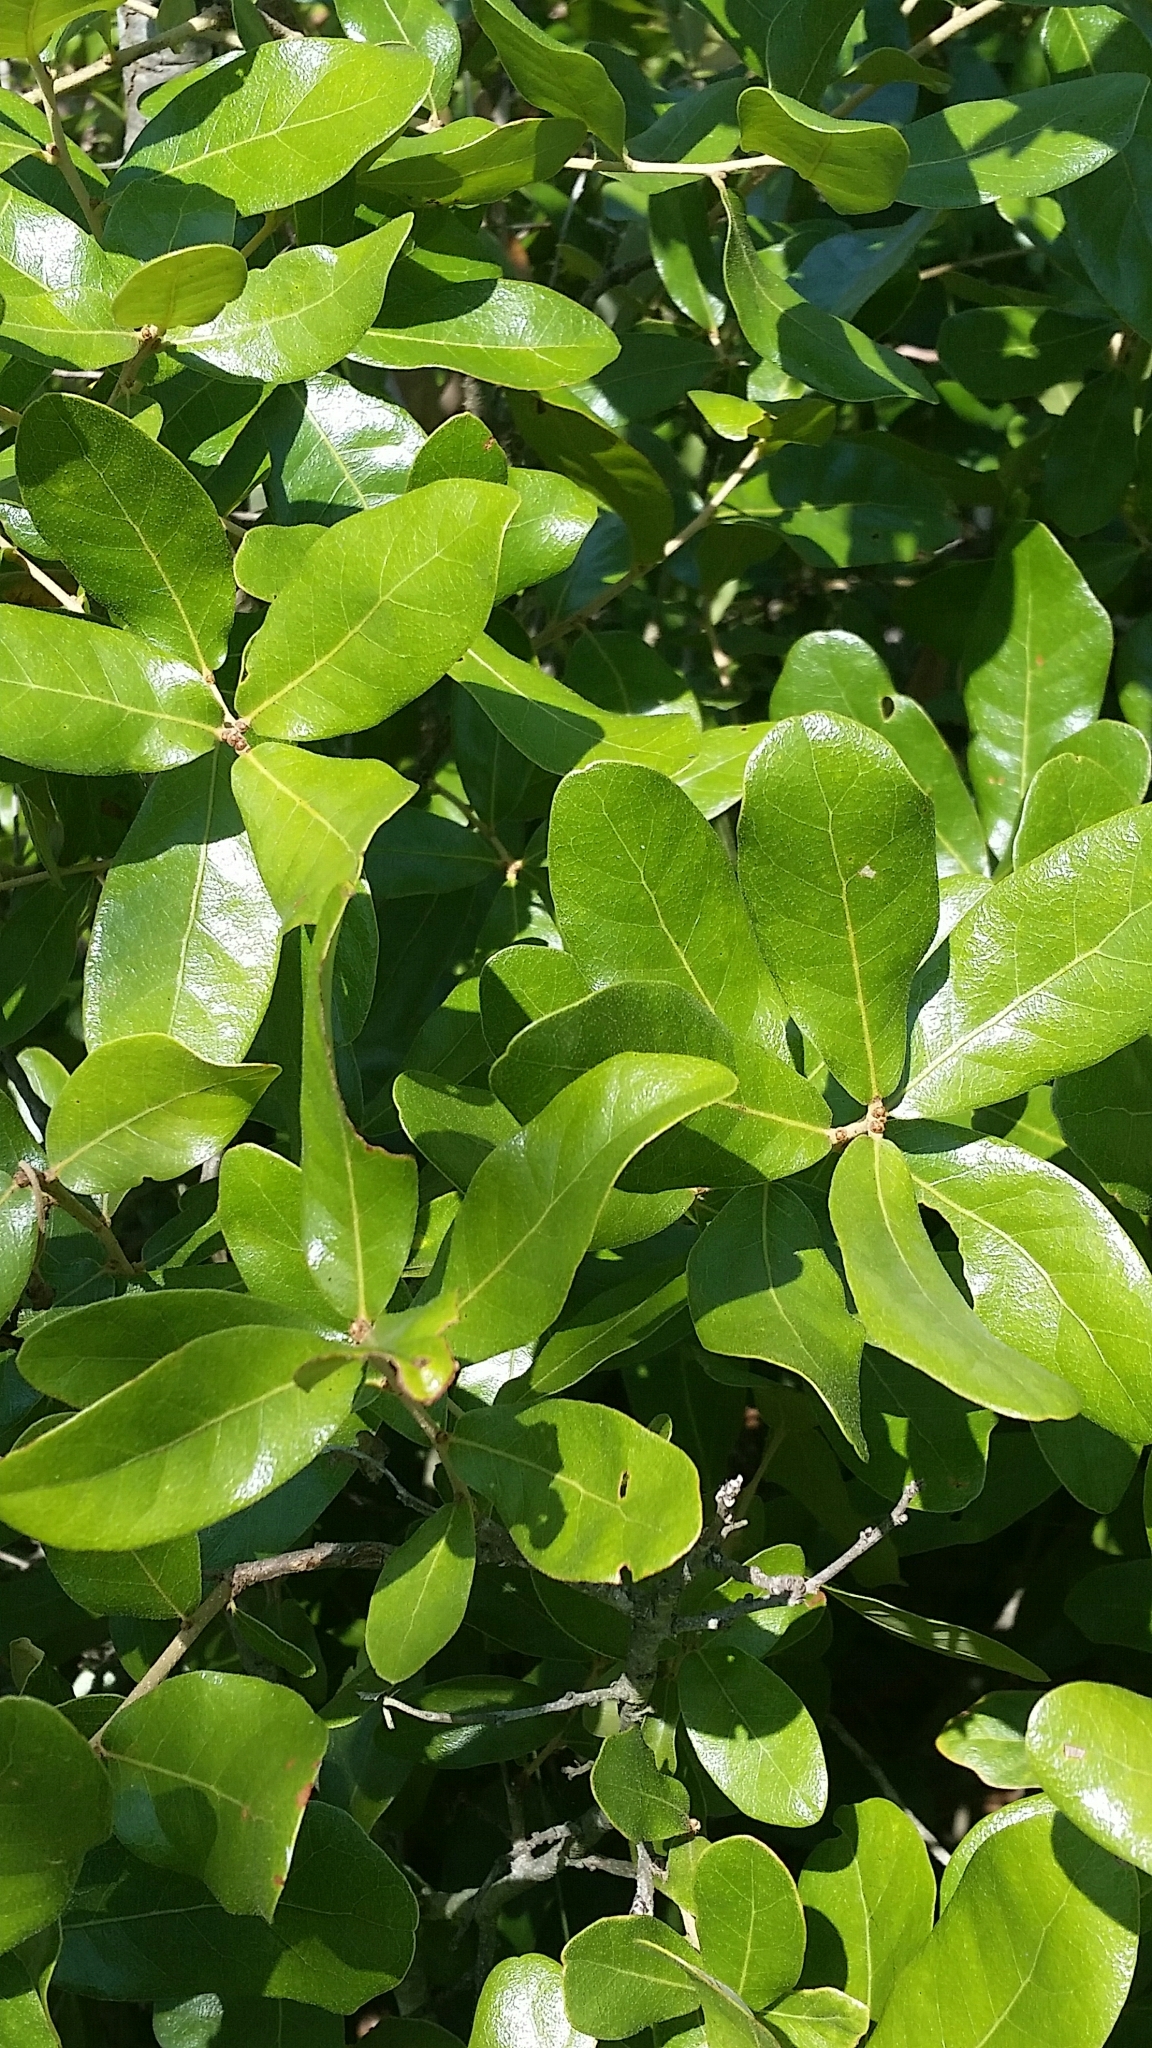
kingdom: Plantae
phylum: Tracheophyta
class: Magnoliopsida
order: Fagales
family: Fagaceae
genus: Quercus
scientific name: Quercus chapmanii
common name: Chapman oak
